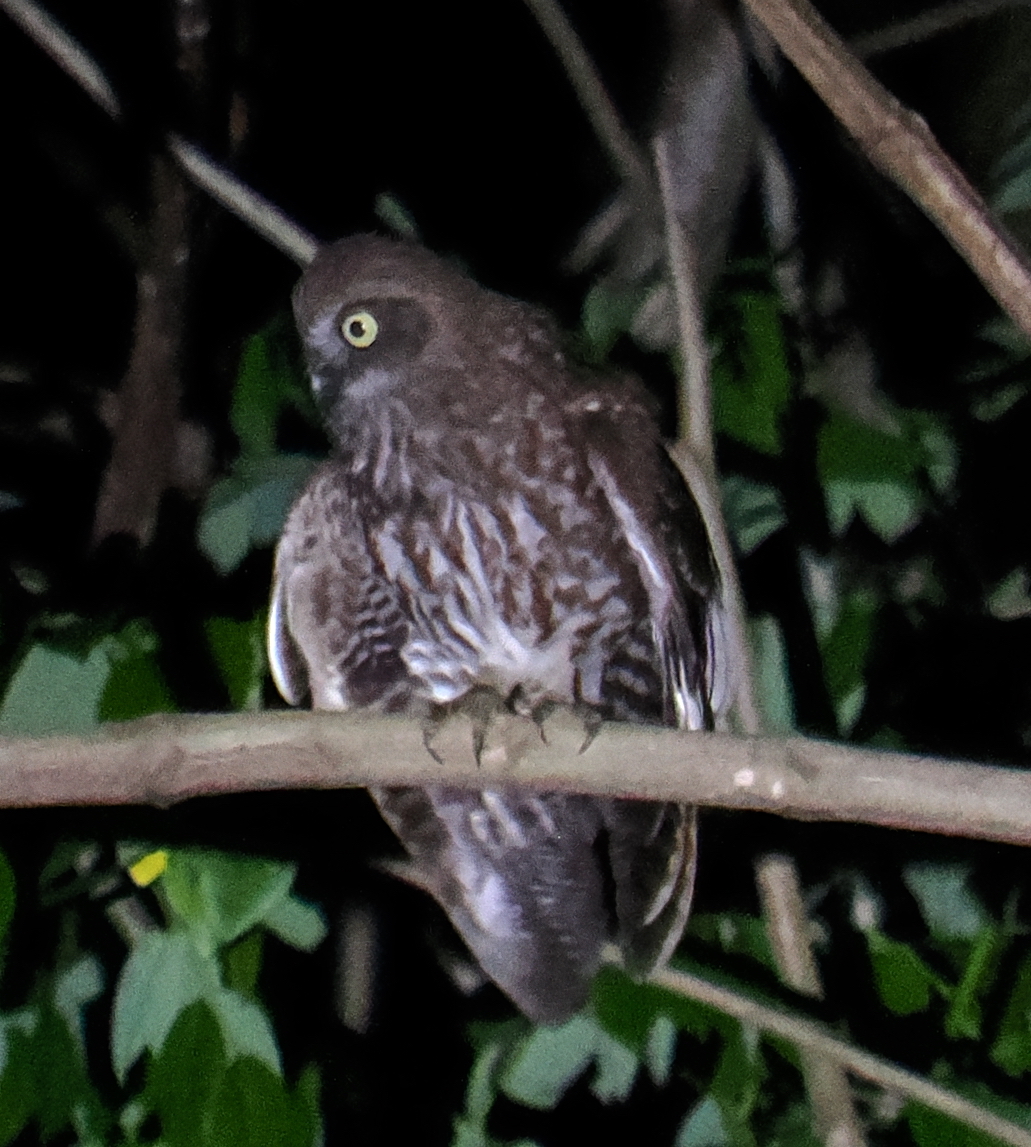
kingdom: Animalia
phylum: Chordata
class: Aves
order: Strigiformes
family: Strigidae
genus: Ninox
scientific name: Ninox plesseni
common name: Alor boobook
